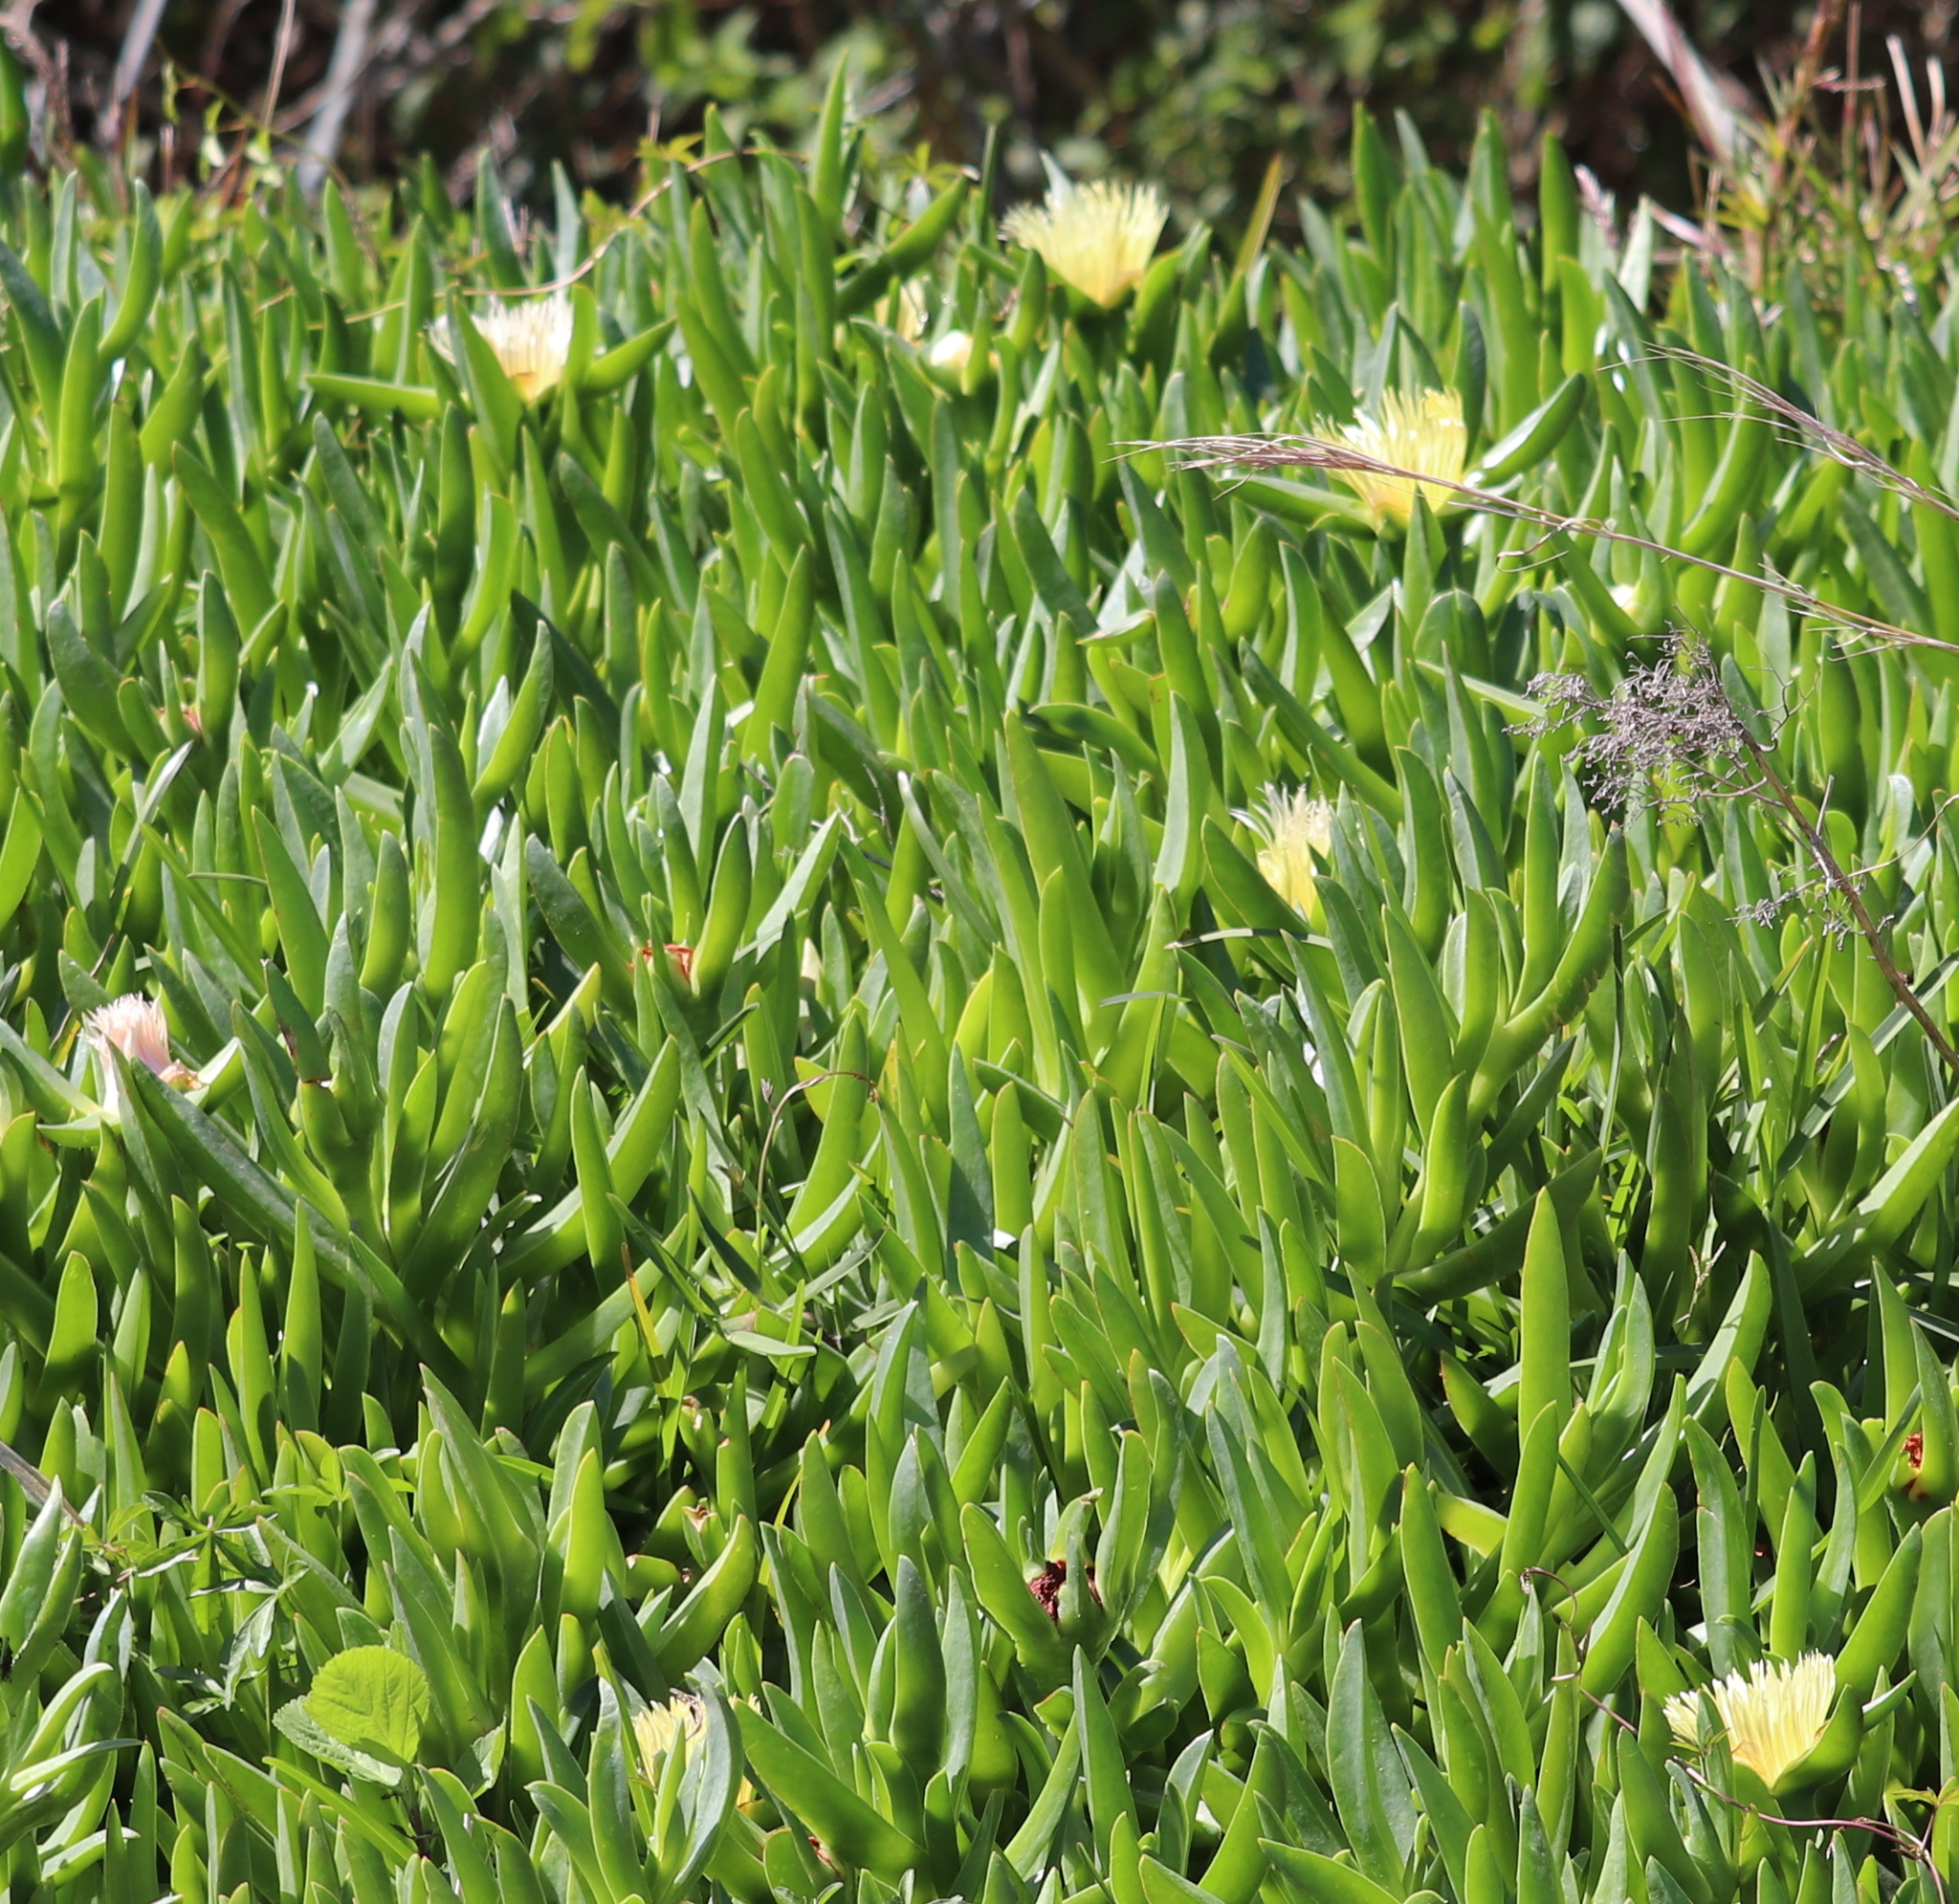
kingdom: Plantae
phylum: Tracheophyta
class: Magnoliopsida
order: Caryophyllales
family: Aizoaceae
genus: Carpobrotus
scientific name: Carpobrotus edulis
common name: Hottentot-fig
